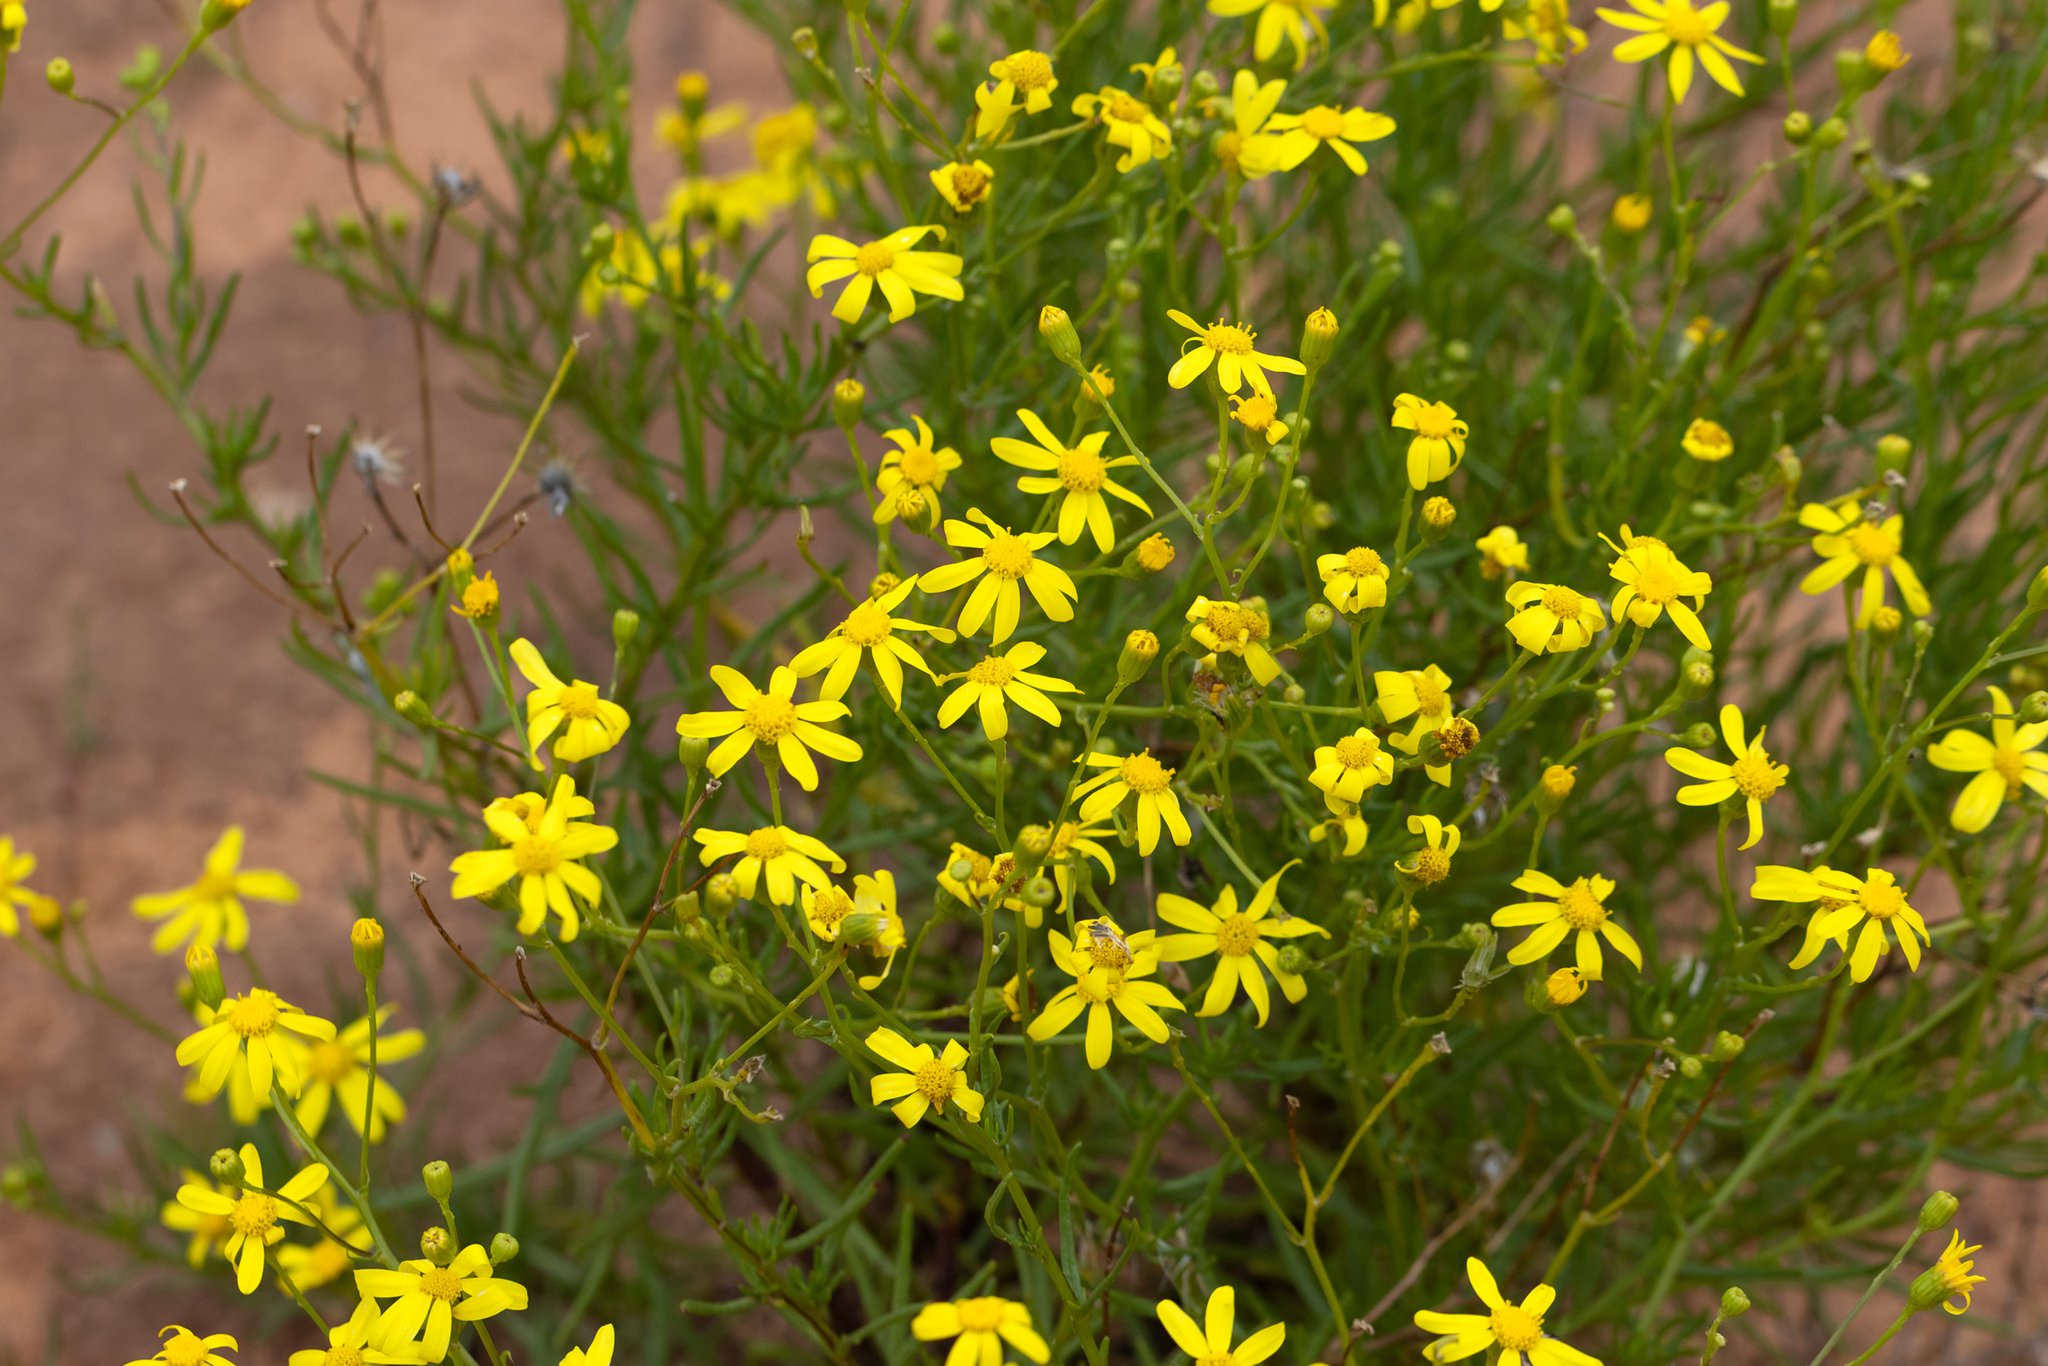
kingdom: Plantae
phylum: Tracheophyta
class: Magnoliopsida
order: Asterales
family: Asteraceae
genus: Senecio
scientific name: Senecio spanomerus
